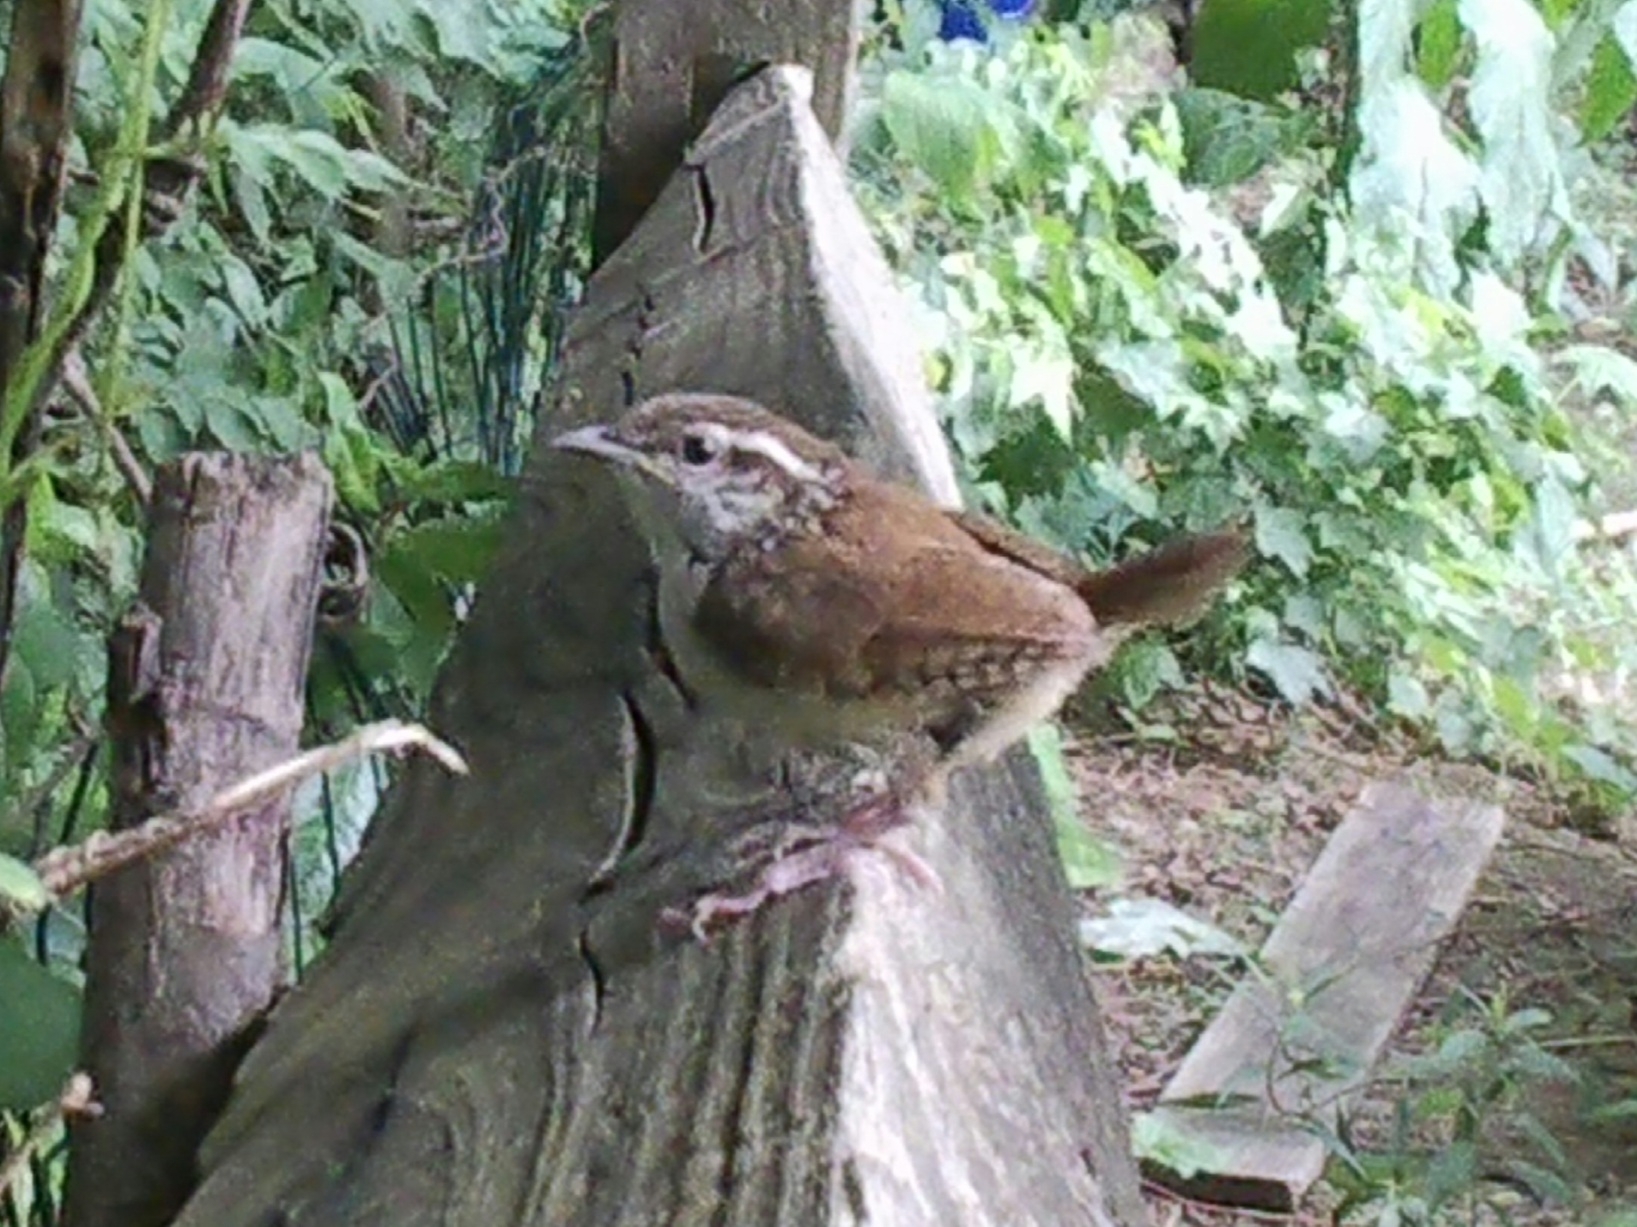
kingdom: Animalia
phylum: Chordata
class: Aves
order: Passeriformes
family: Troglodytidae
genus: Thryothorus
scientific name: Thryothorus ludovicianus
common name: Carolina wren
